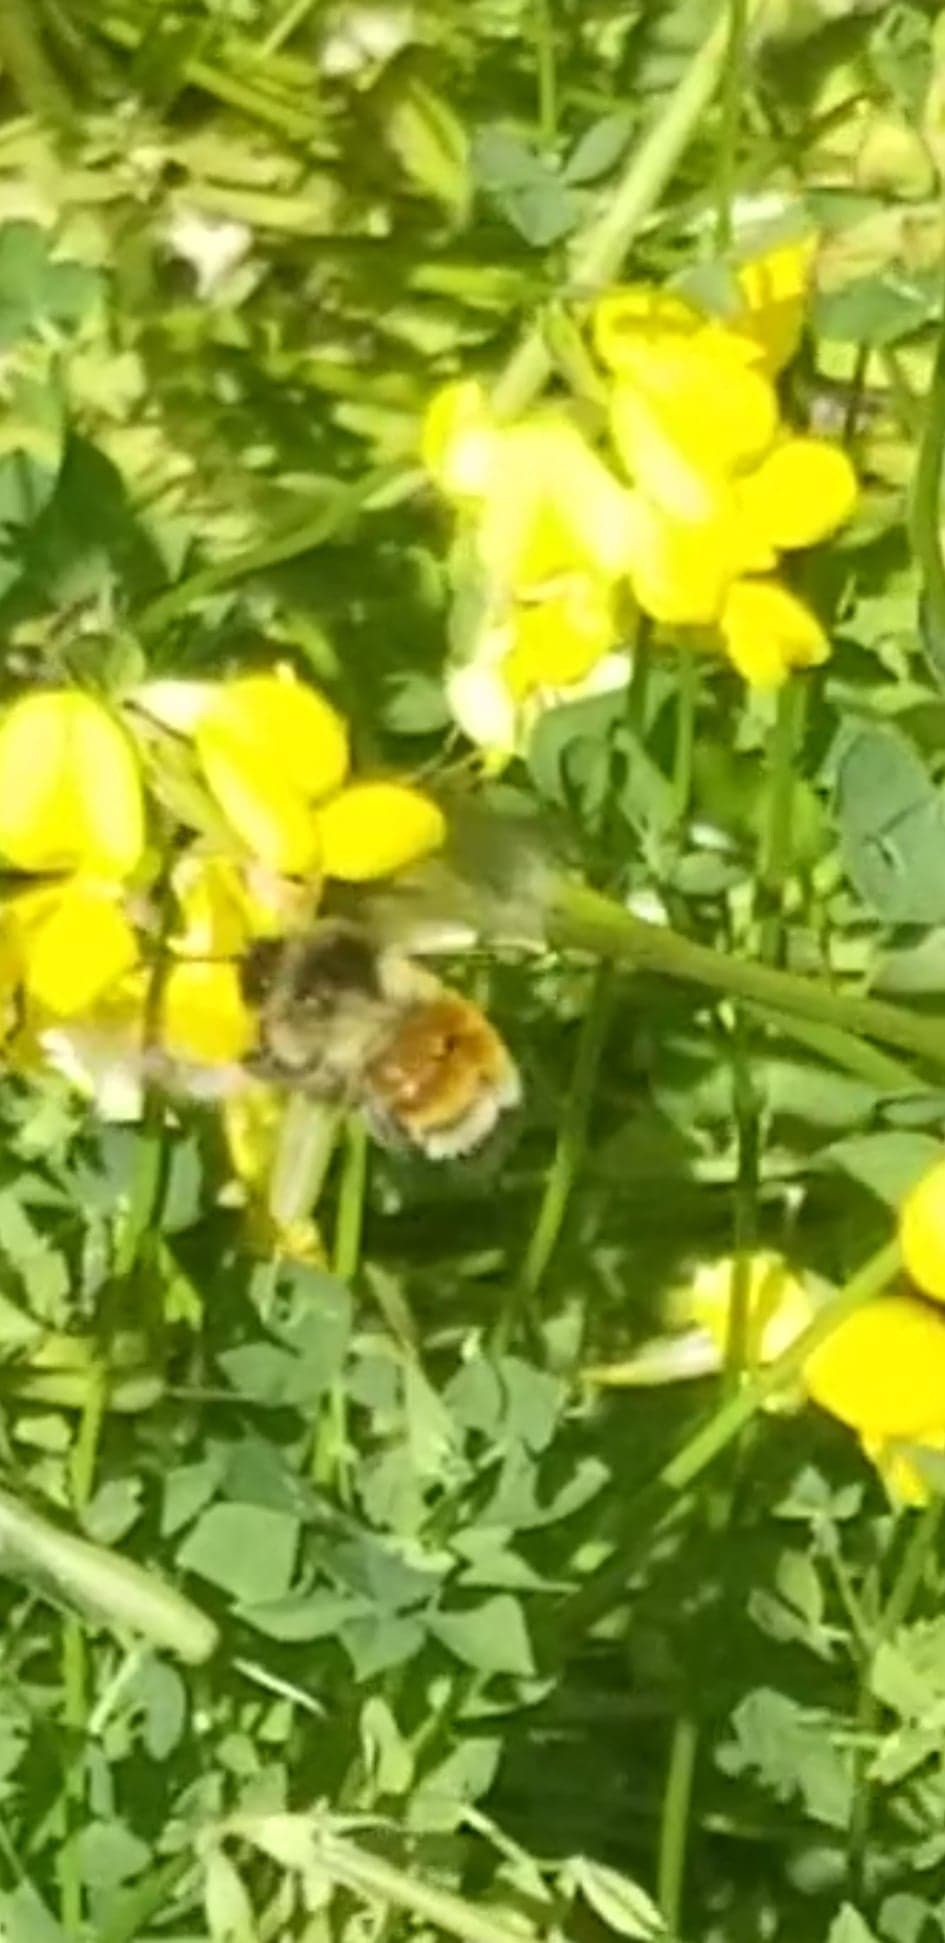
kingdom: Animalia
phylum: Arthropoda
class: Insecta
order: Hymenoptera
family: Apidae
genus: Bombus
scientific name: Bombus ternarius
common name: Tri-colored bumble bee
